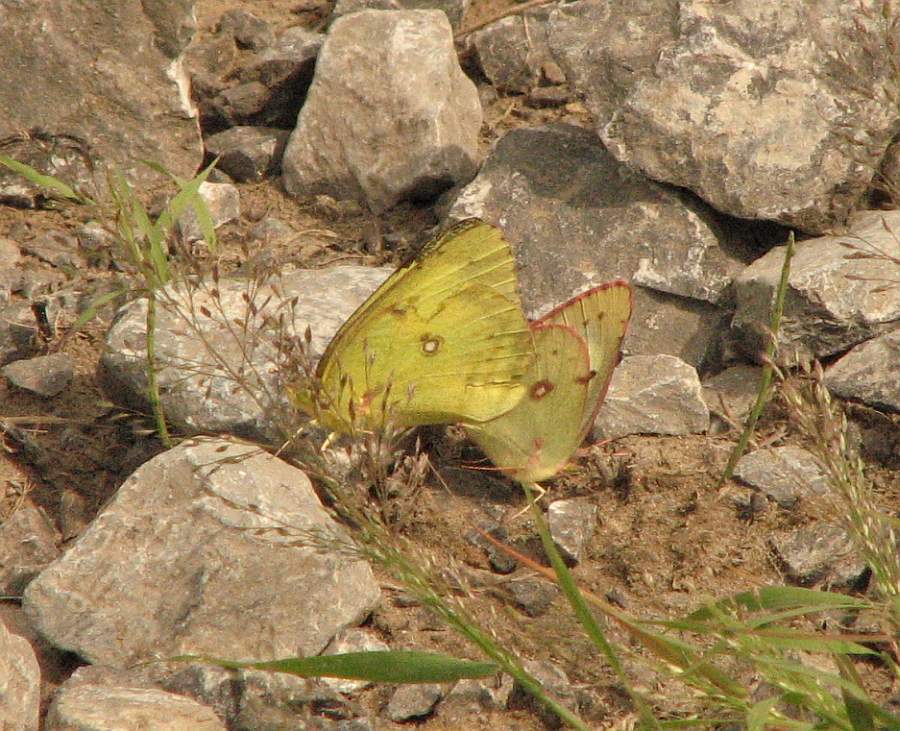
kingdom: Animalia
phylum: Arthropoda
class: Insecta
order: Lepidoptera
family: Pieridae
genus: Colias
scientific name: Colias philodice
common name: Clouded sulphur
